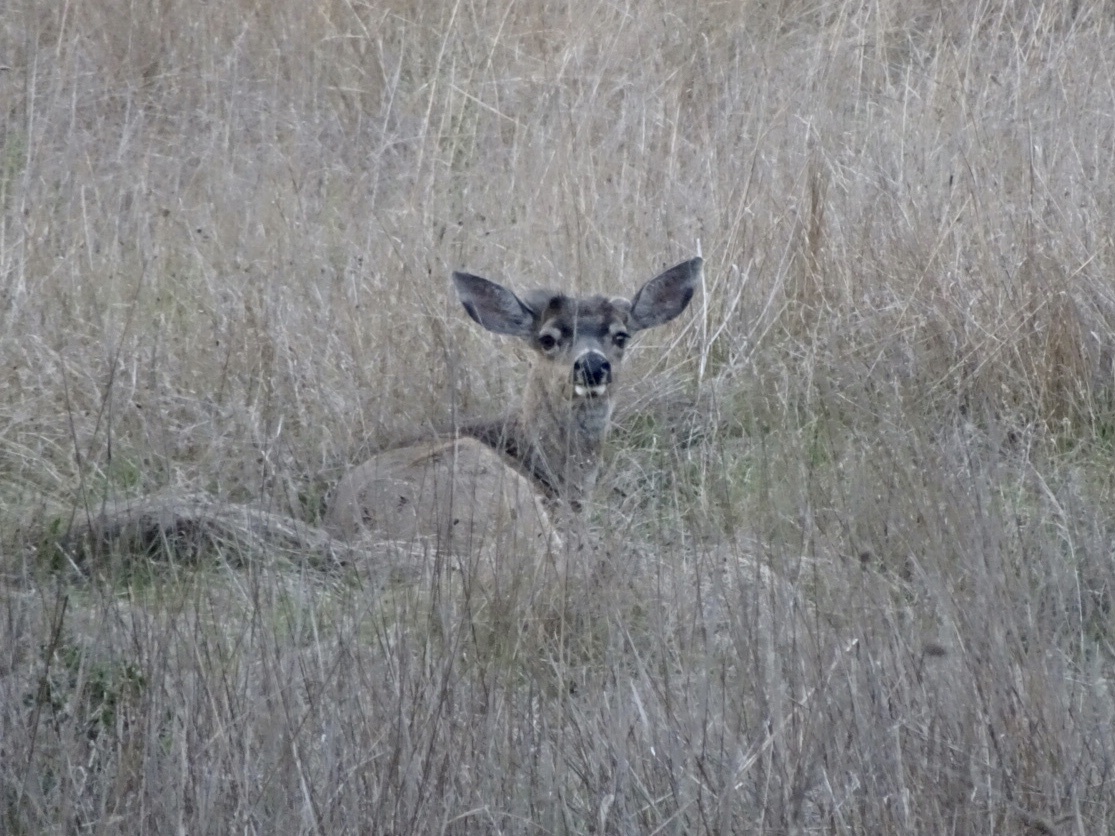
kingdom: Animalia
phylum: Chordata
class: Mammalia
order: Artiodactyla
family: Cervidae
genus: Odocoileus
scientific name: Odocoileus hemionus
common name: Mule deer
